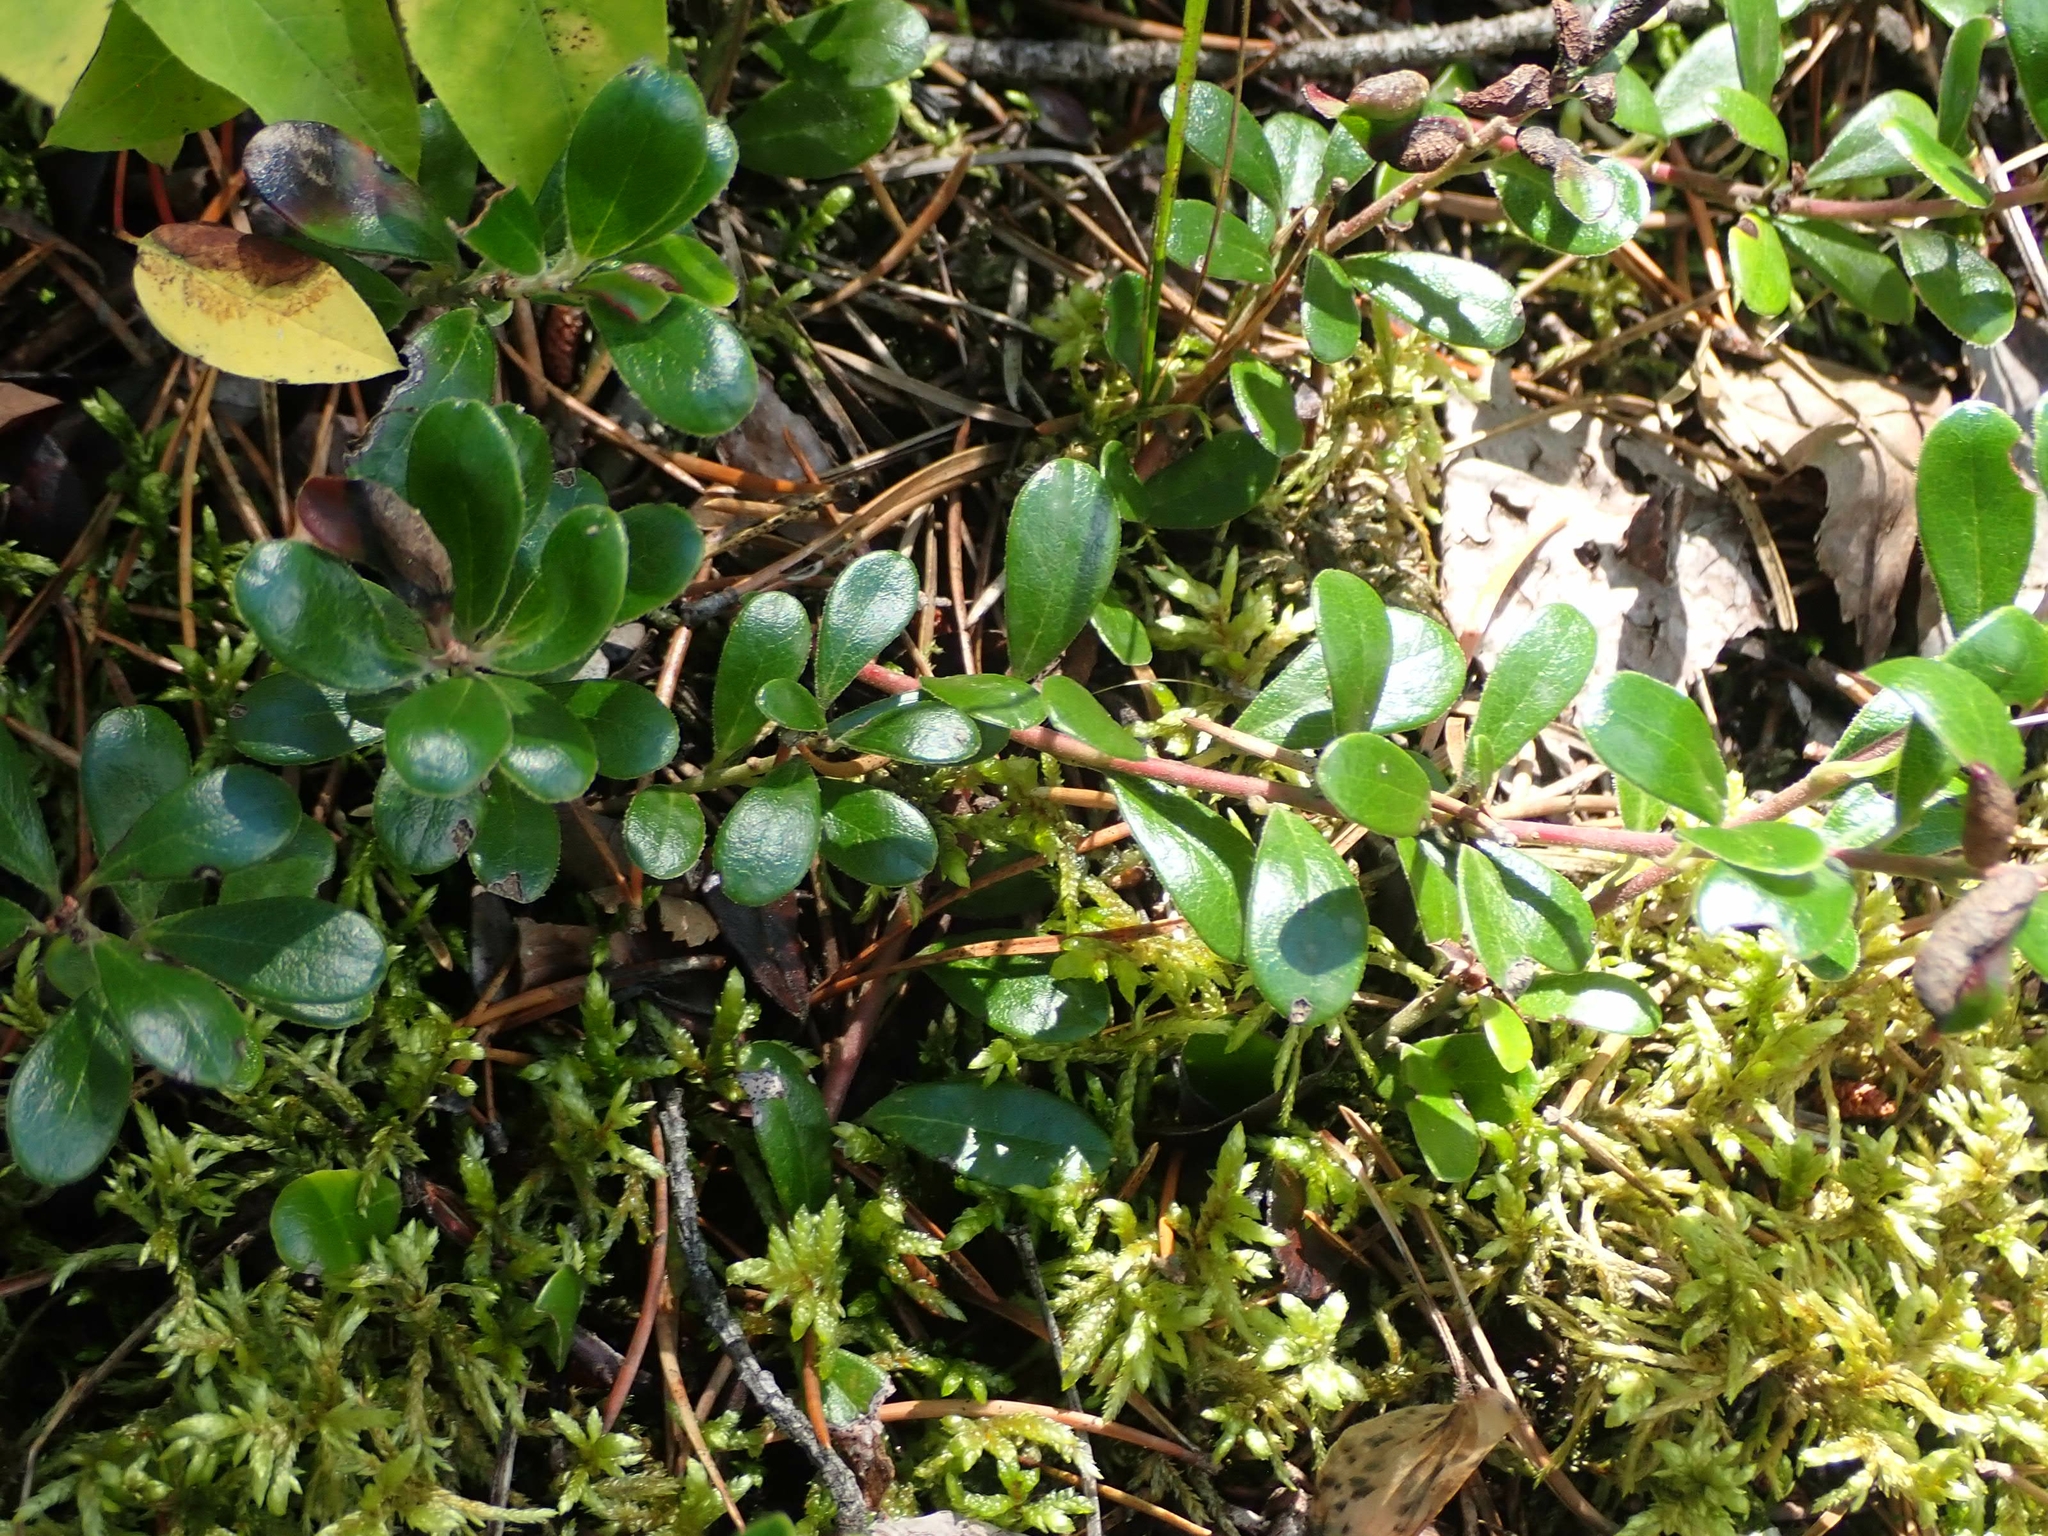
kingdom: Plantae
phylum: Tracheophyta
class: Magnoliopsida
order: Ericales
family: Ericaceae
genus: Arctostaphylos
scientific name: Arctostaphylos uva-ursi
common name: Bearberry
